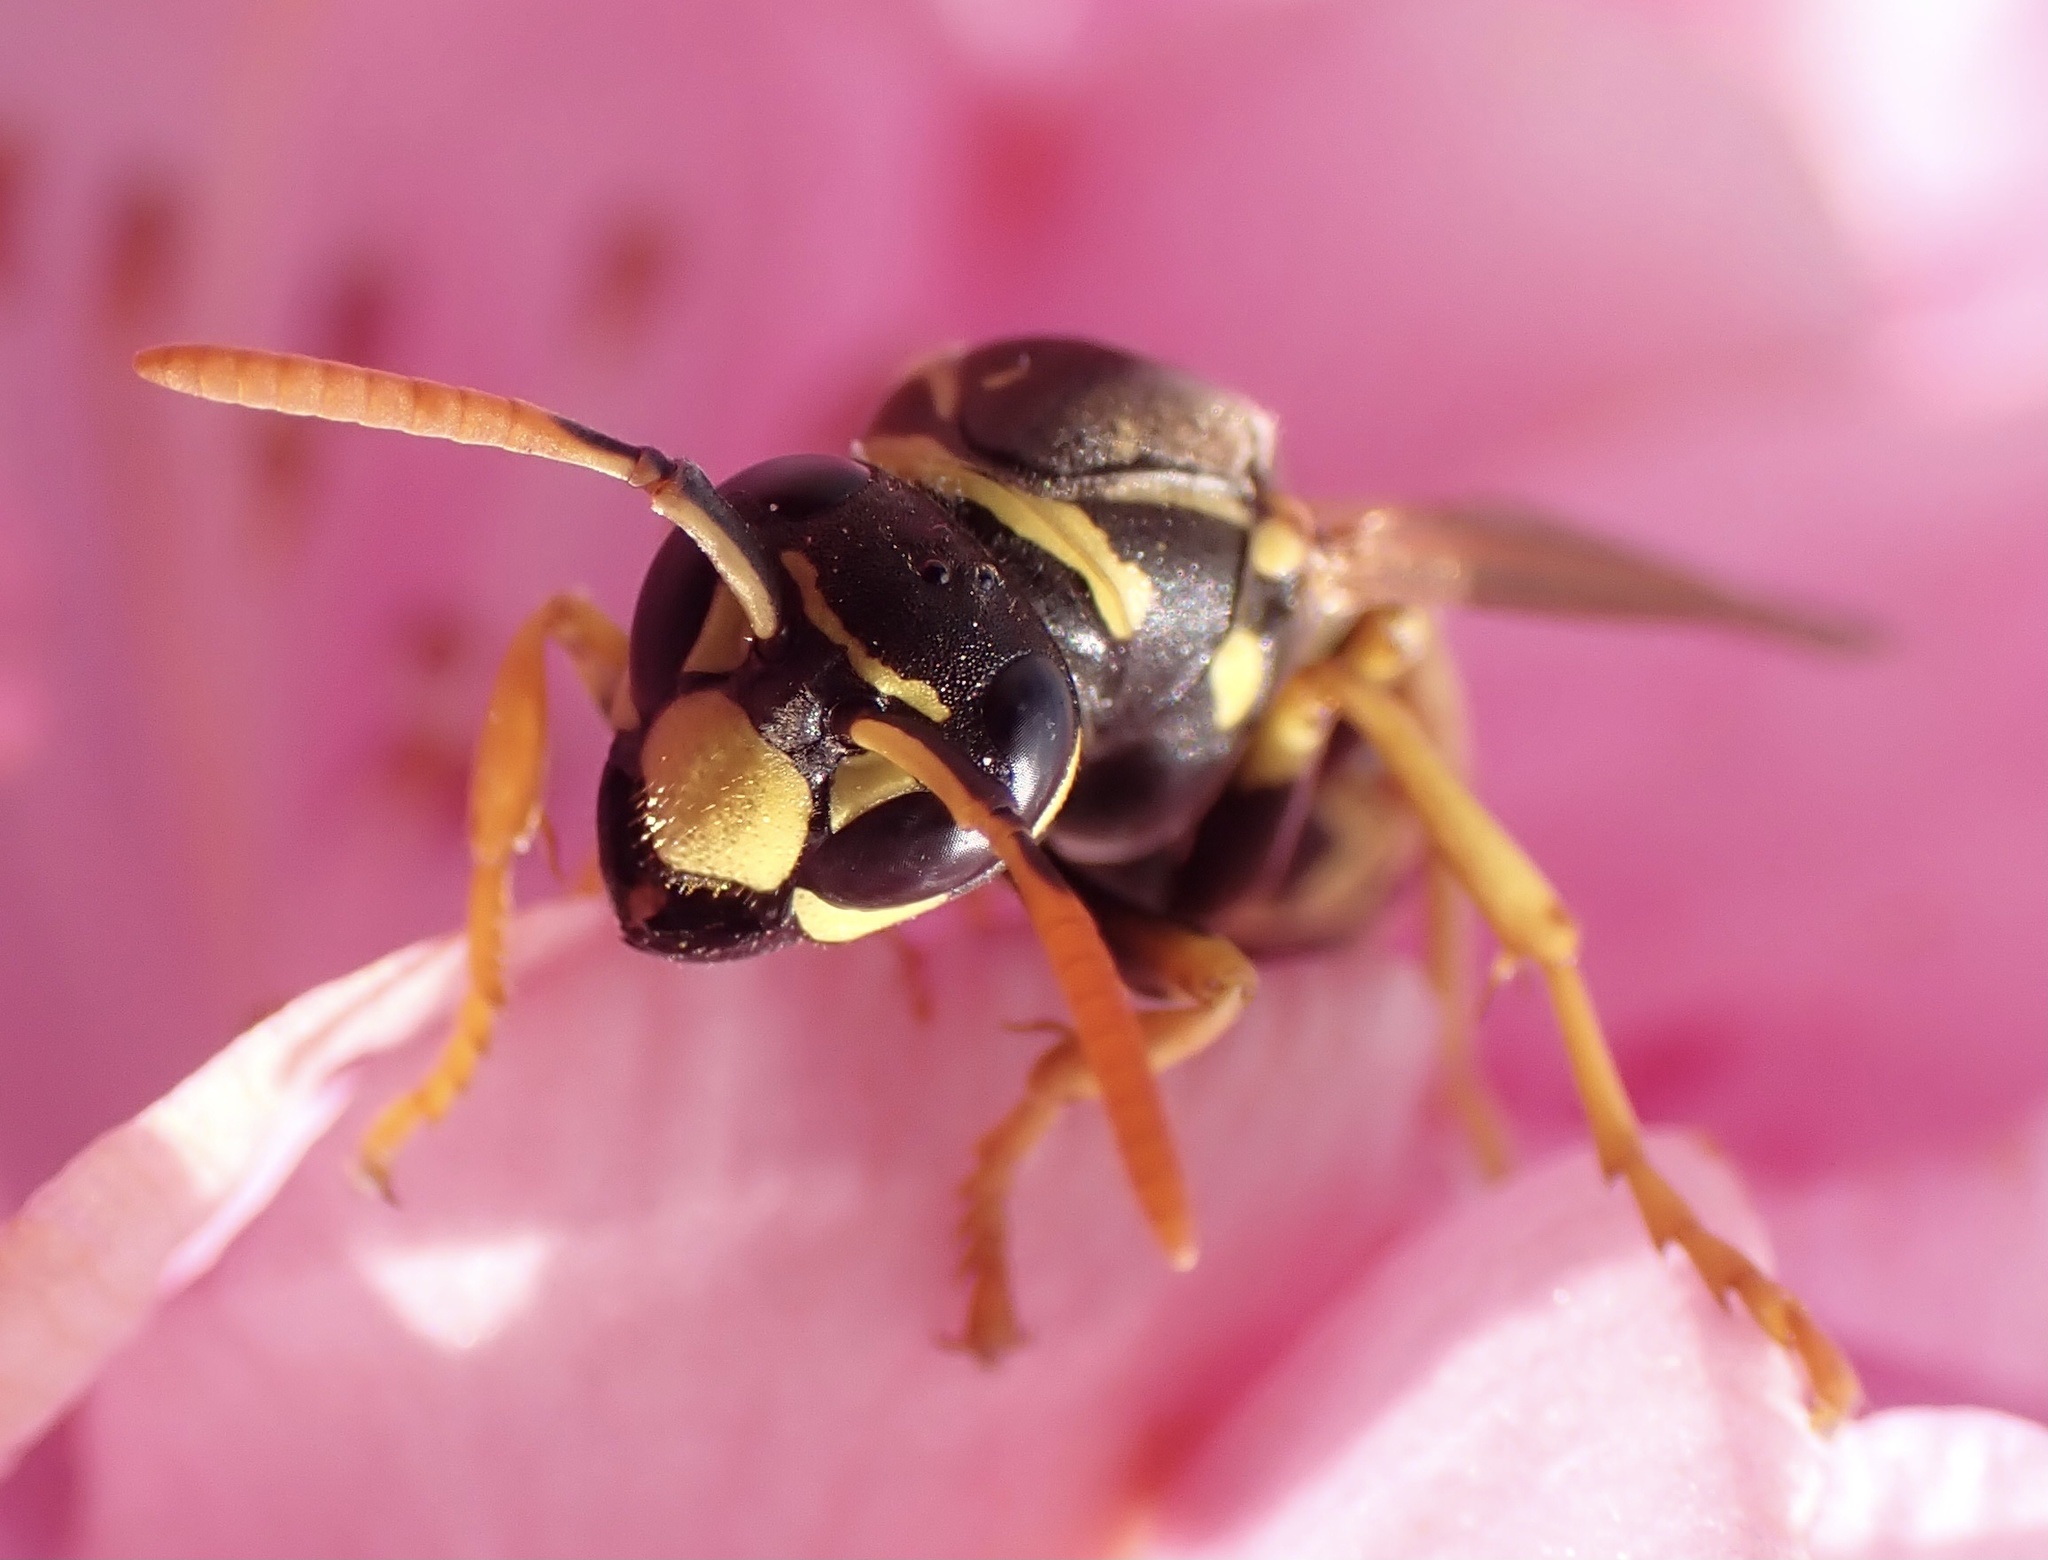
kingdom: Animalia
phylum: Arthropoda
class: Insecta
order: Hymenoptera
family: Eumenidae
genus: Polistes
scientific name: Polistes dominula
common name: Paper wasp
